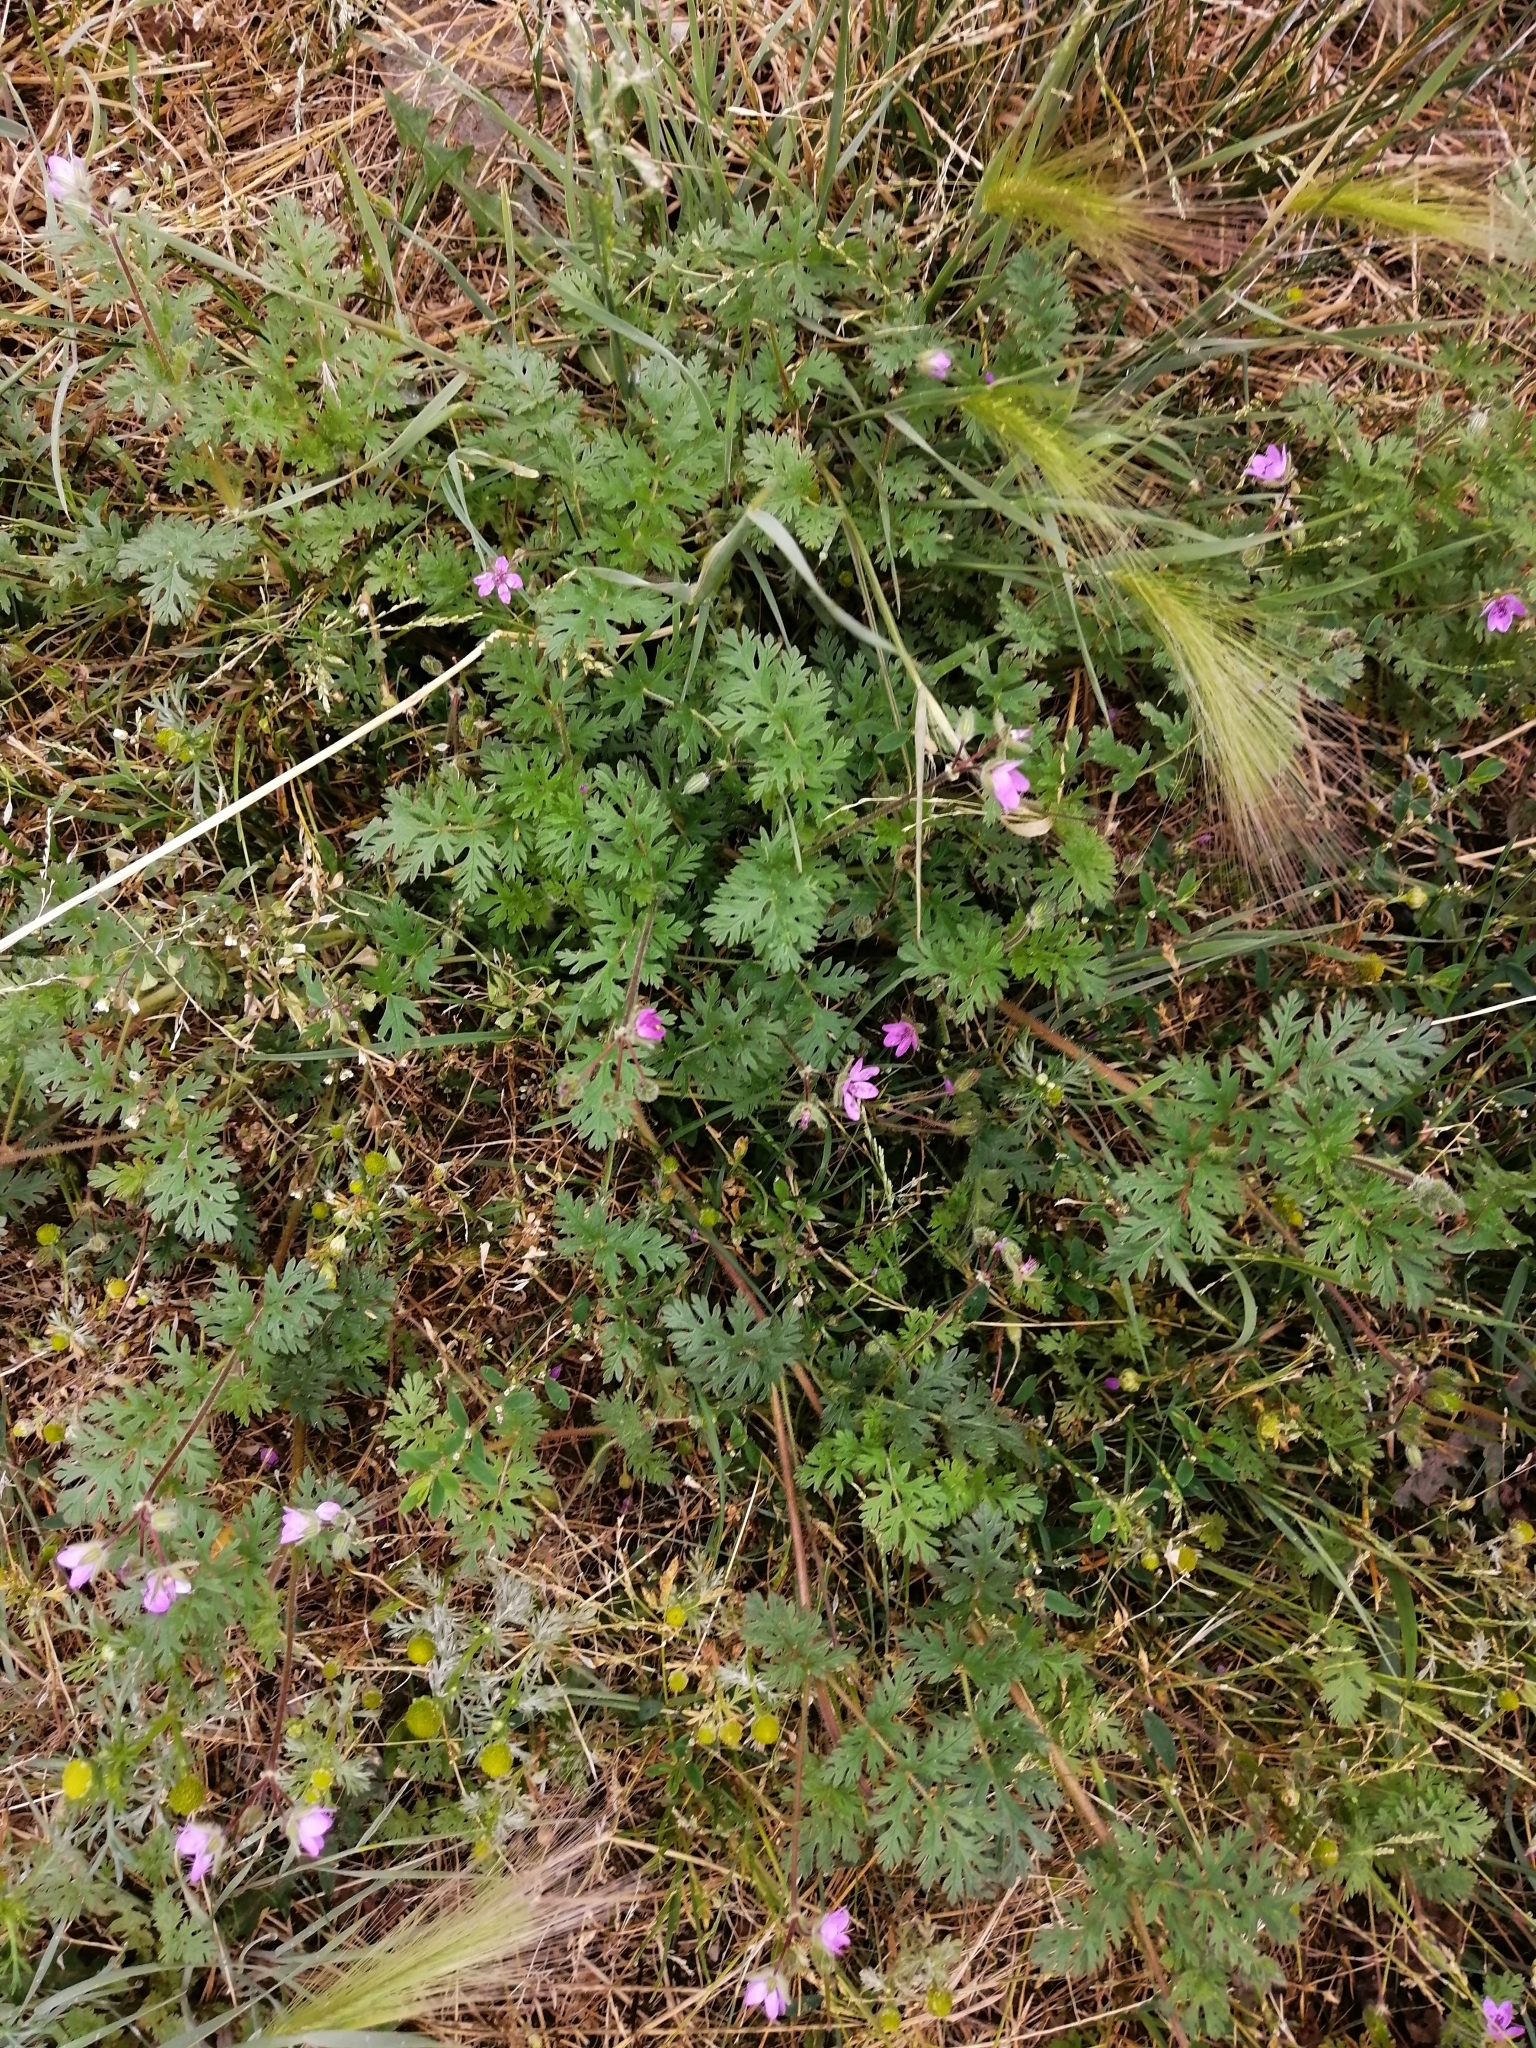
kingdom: Plantae
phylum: Tracheophyta
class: Magnoliopsida
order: Geraniales
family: Geraniaceae
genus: Erodium
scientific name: Erodium cicutarium
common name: Common stork's-bill
